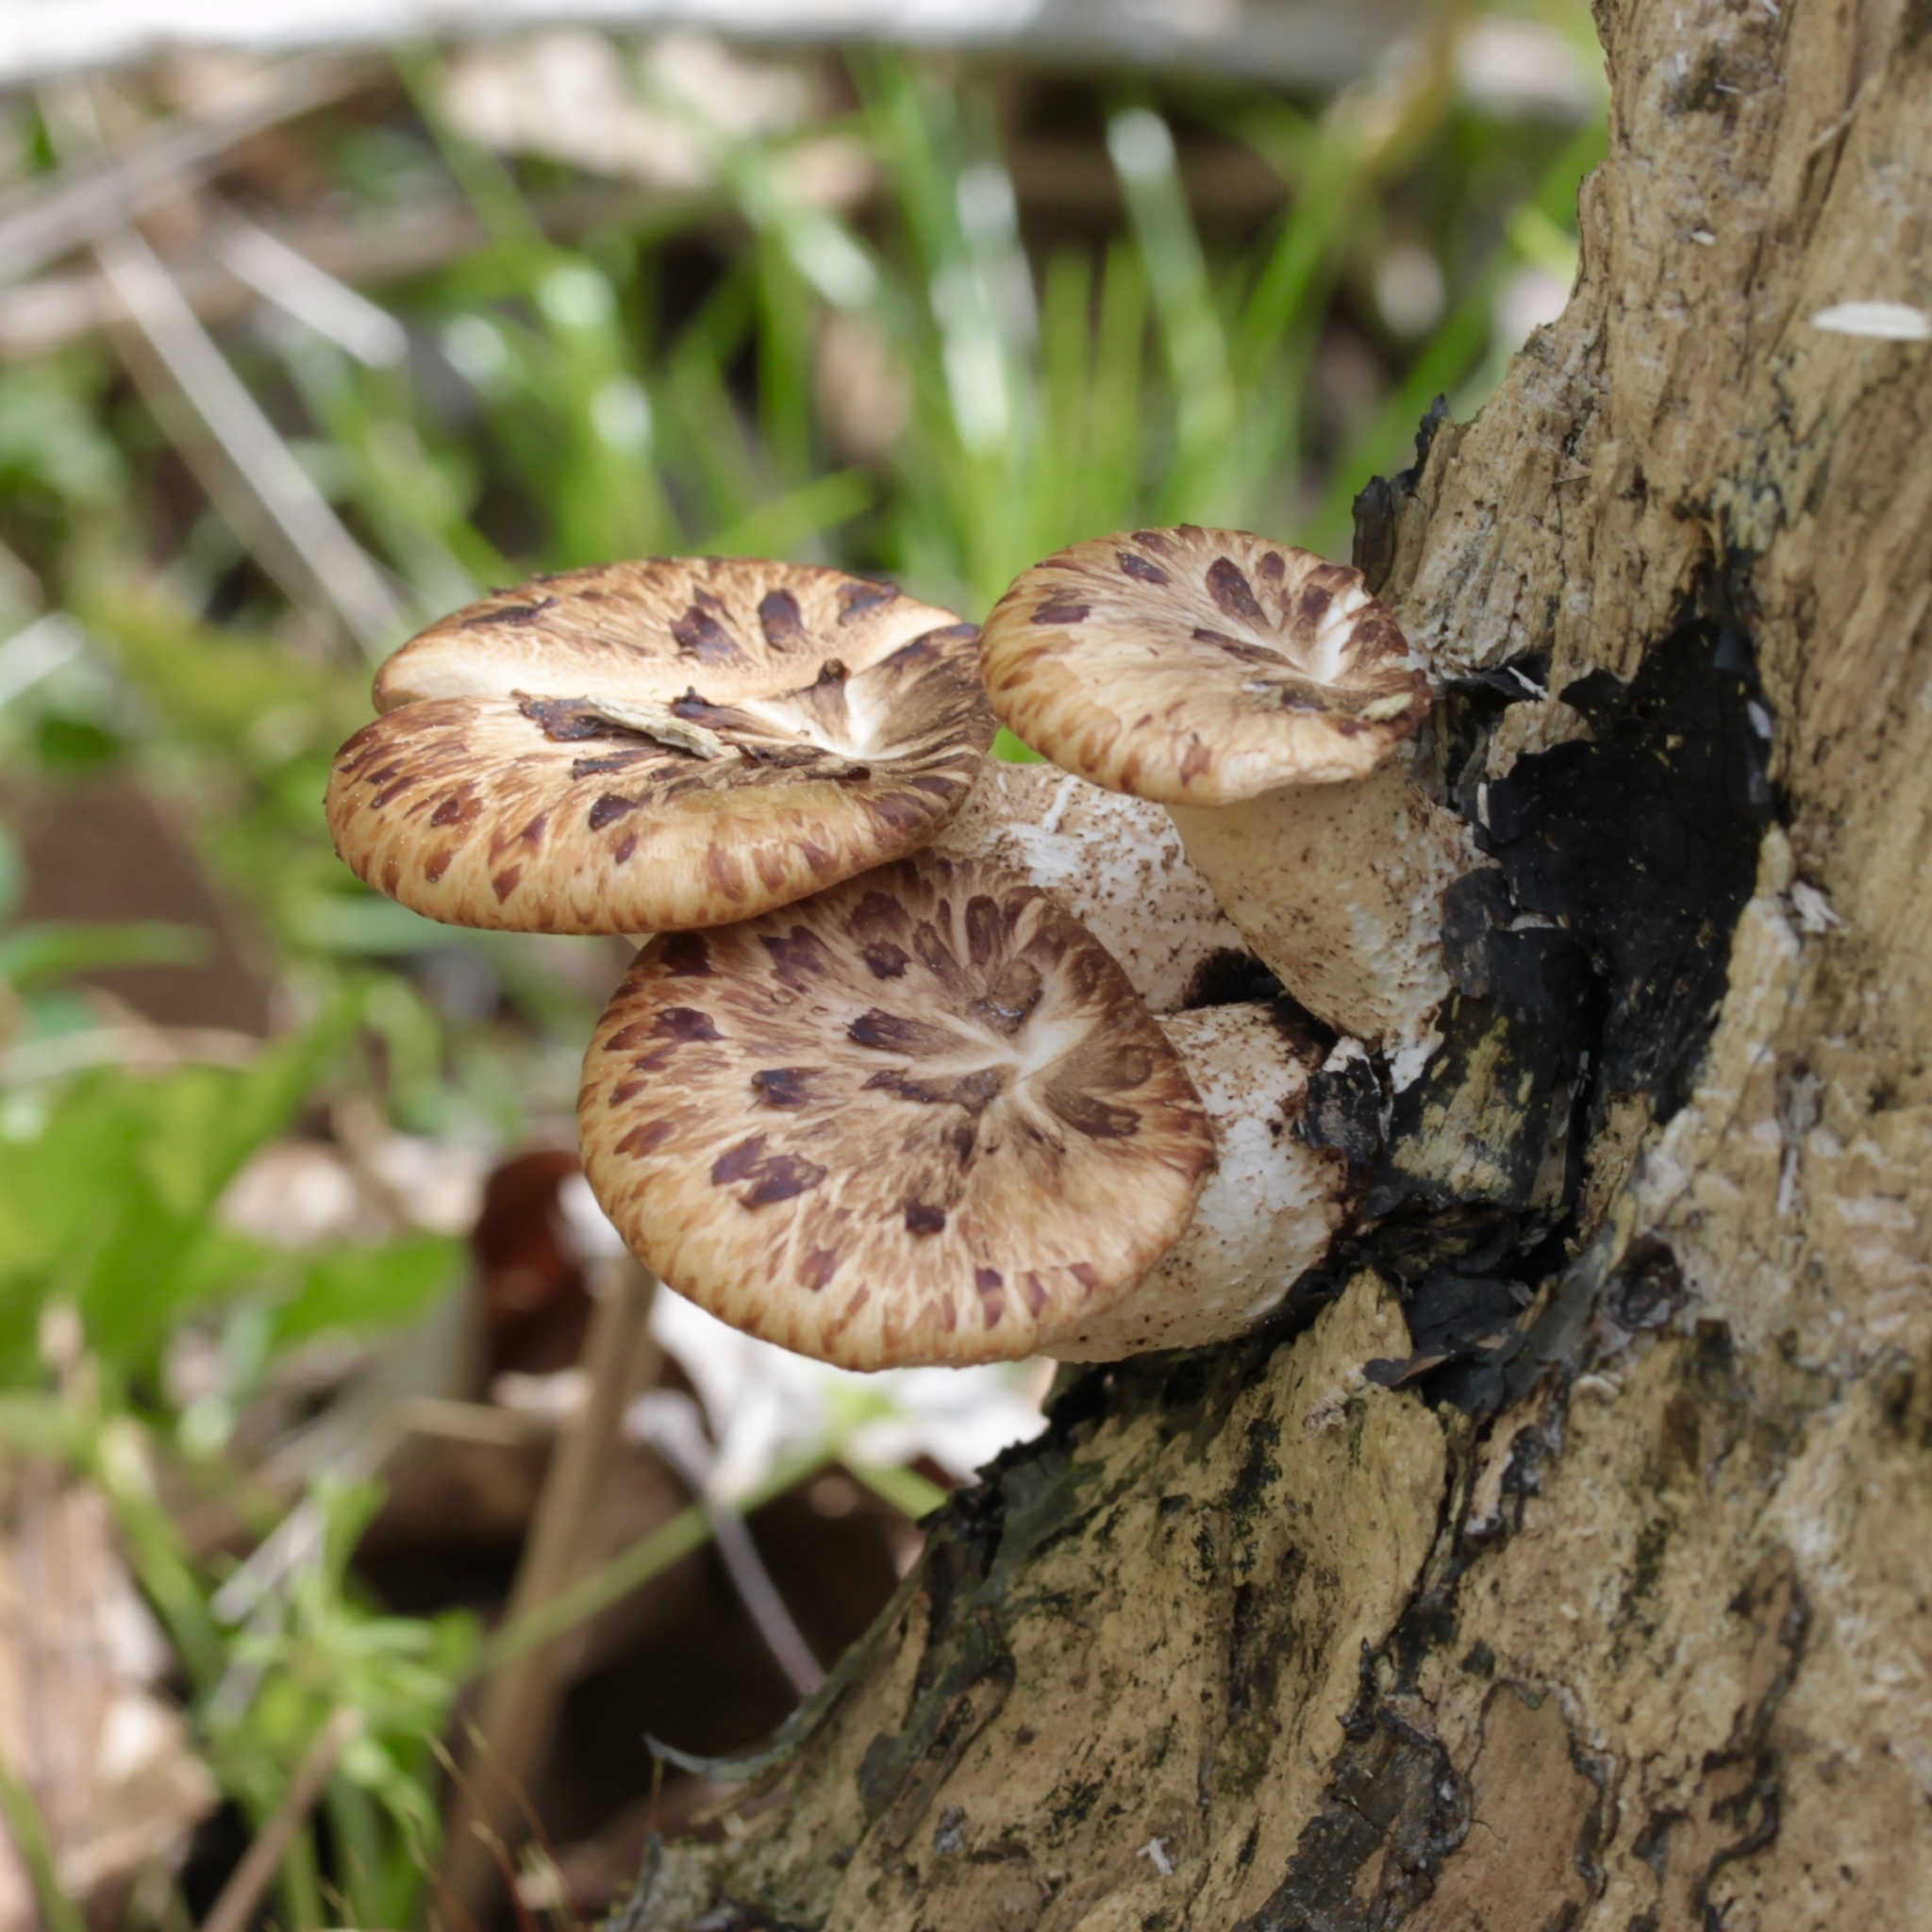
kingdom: Fungi
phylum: Basidiomycota
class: Agaricomycetes
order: Polyporales
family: Polyporaceae
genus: Cerioporus
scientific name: Cerioporus squamosus
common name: Dryad's saddle
